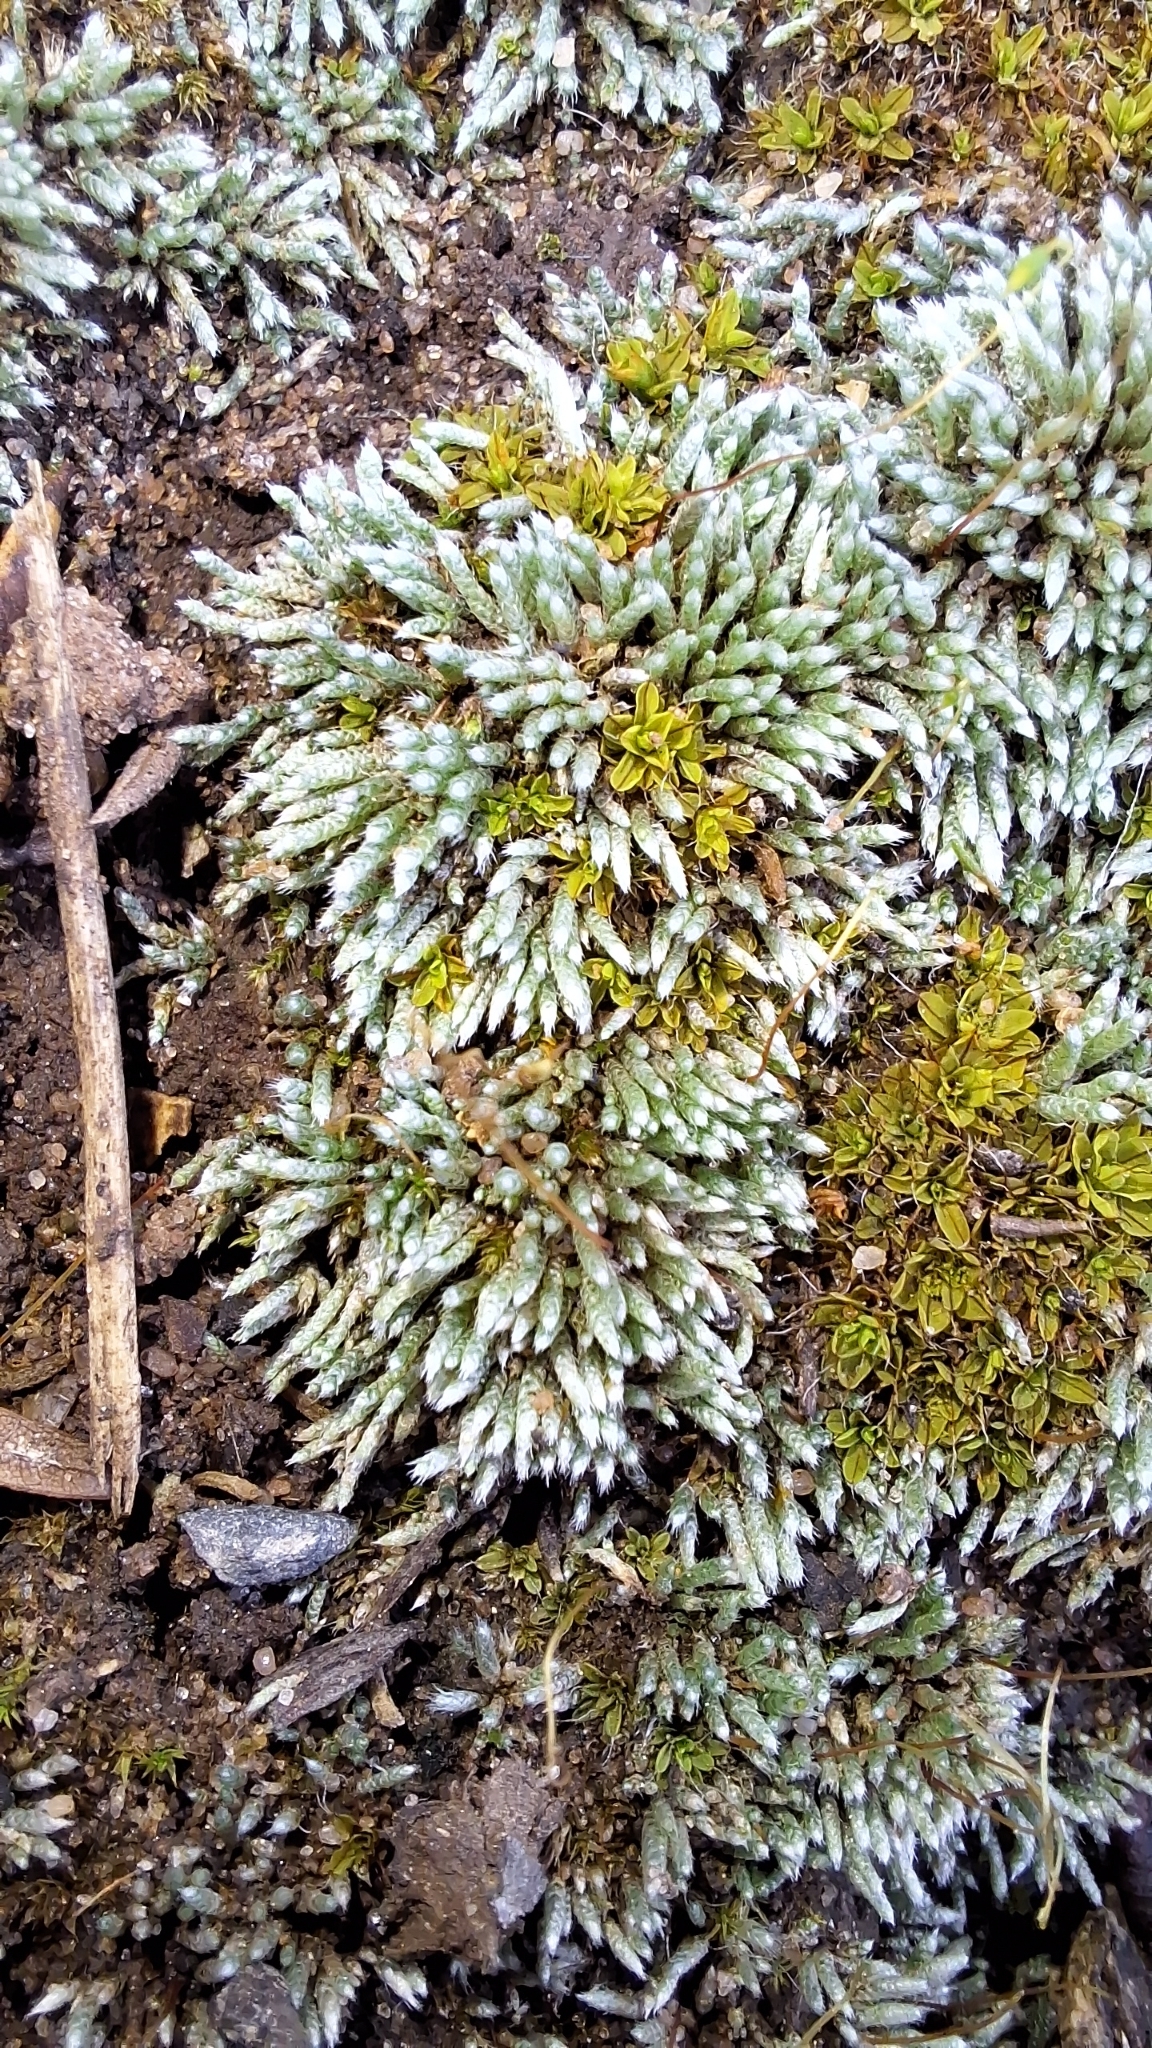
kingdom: Plantae
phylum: Bryophyta
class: Bryopsida
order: Bryales
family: Bryaceae
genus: Bryum
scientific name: Bryum argenteum
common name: Silver-moss
